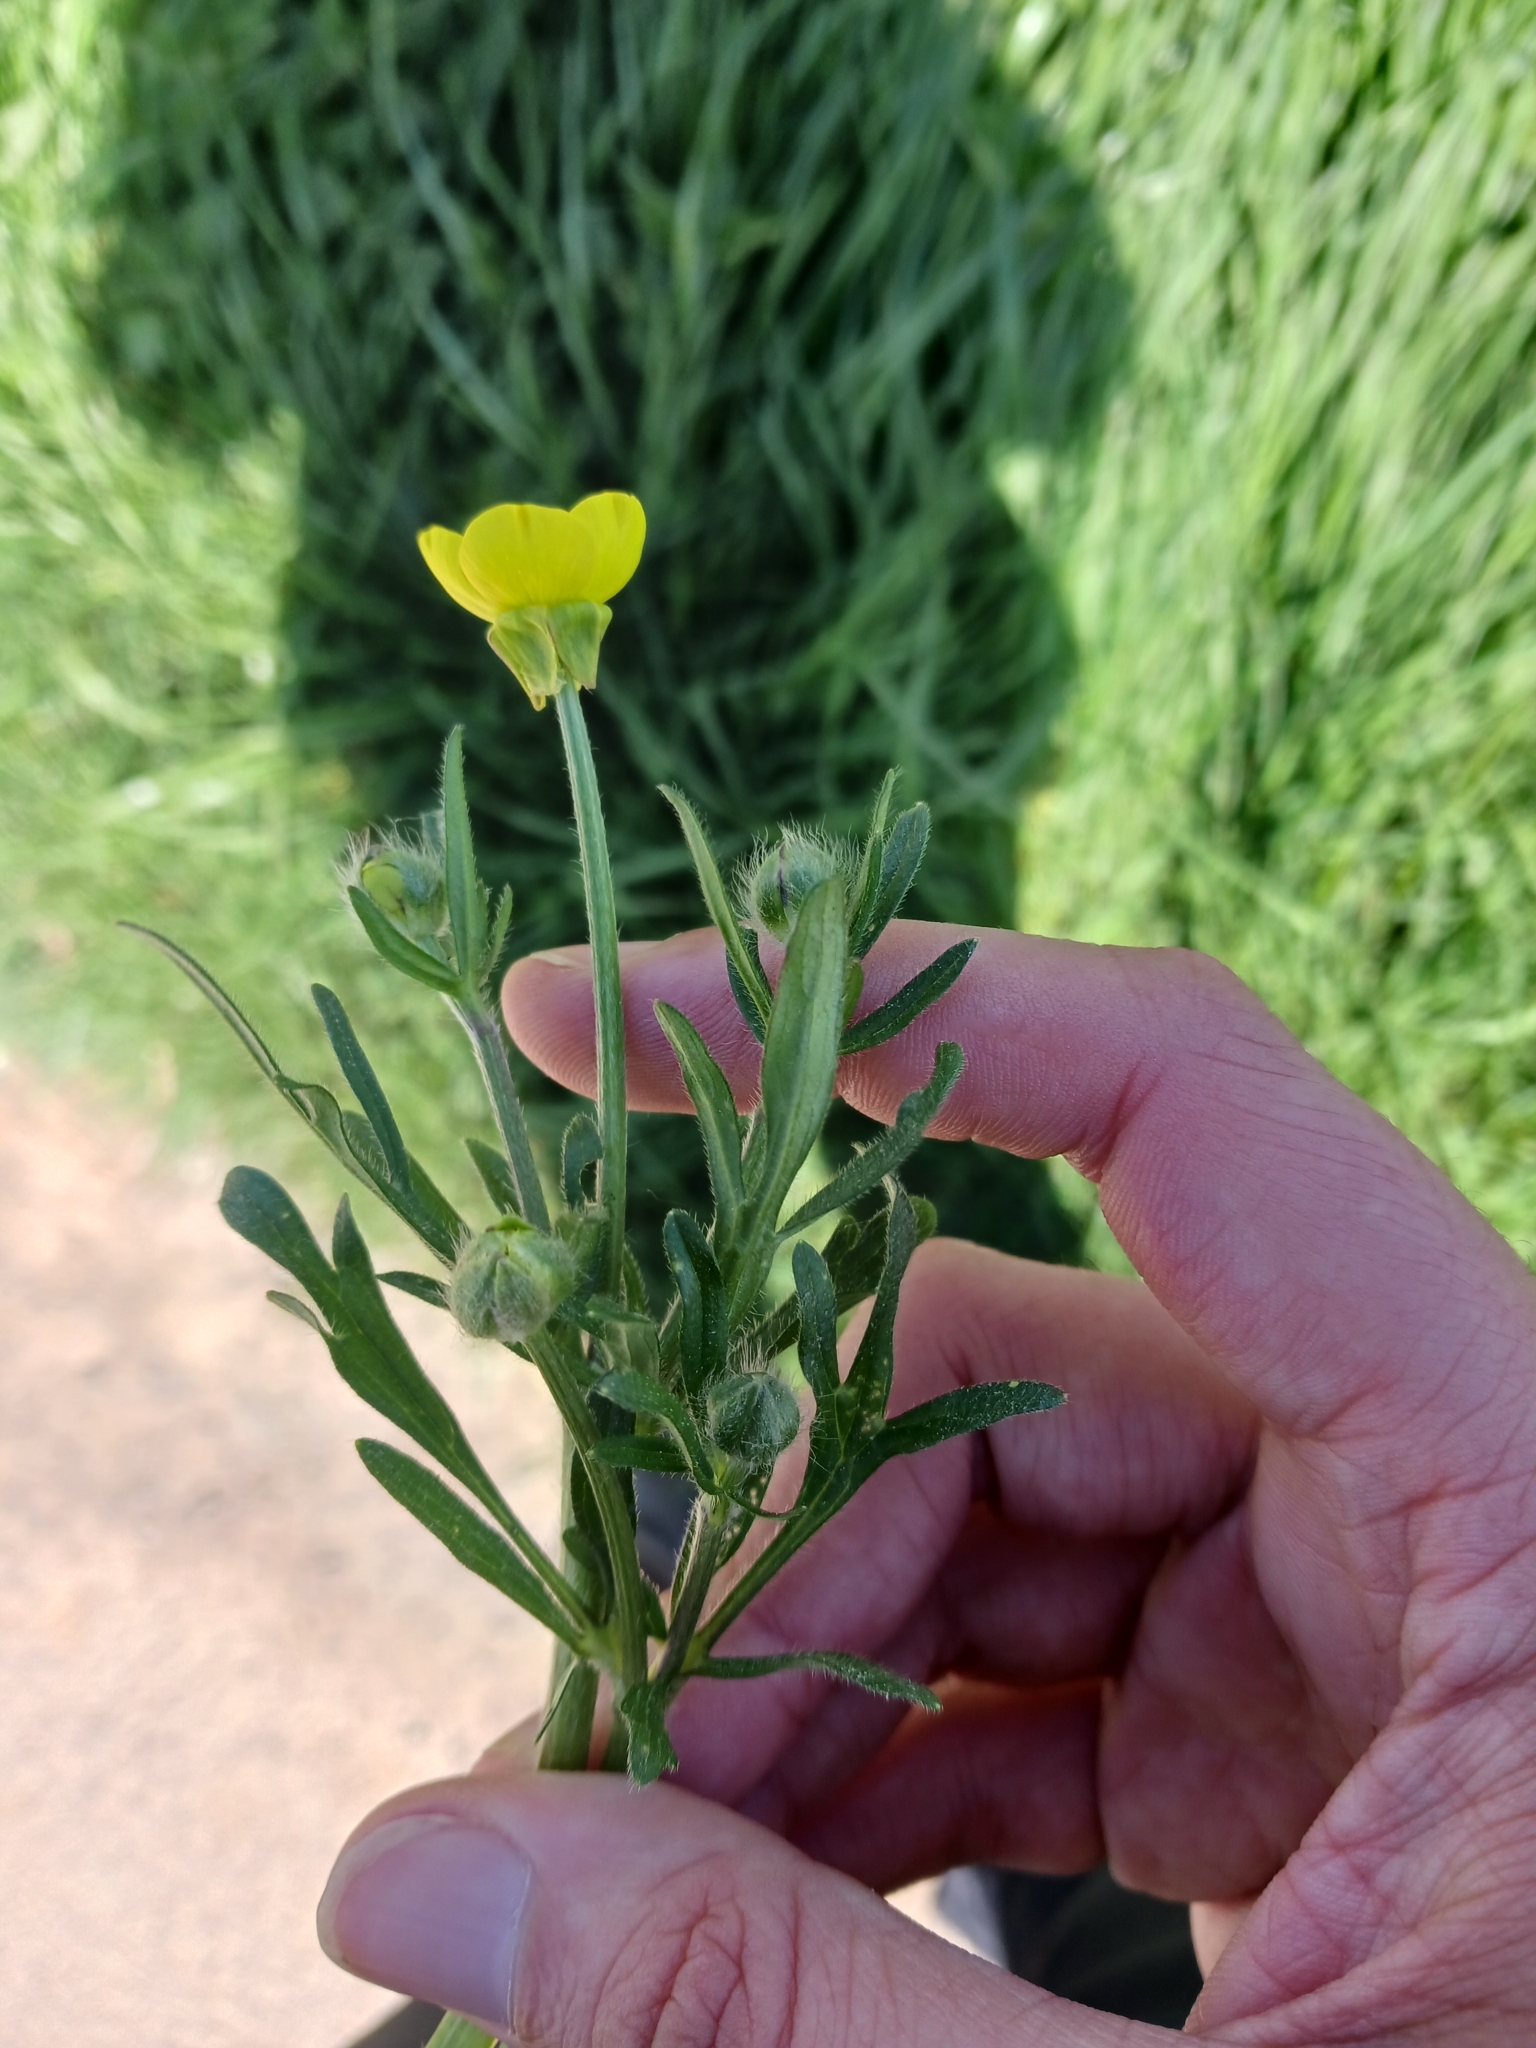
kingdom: Plantae
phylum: Tracheophyta
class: Magnoliopsida
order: Ranunculales
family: Ranunculaceae
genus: Ranunculus
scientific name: Ranunculus bulbosus
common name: Bulbous buttercup
